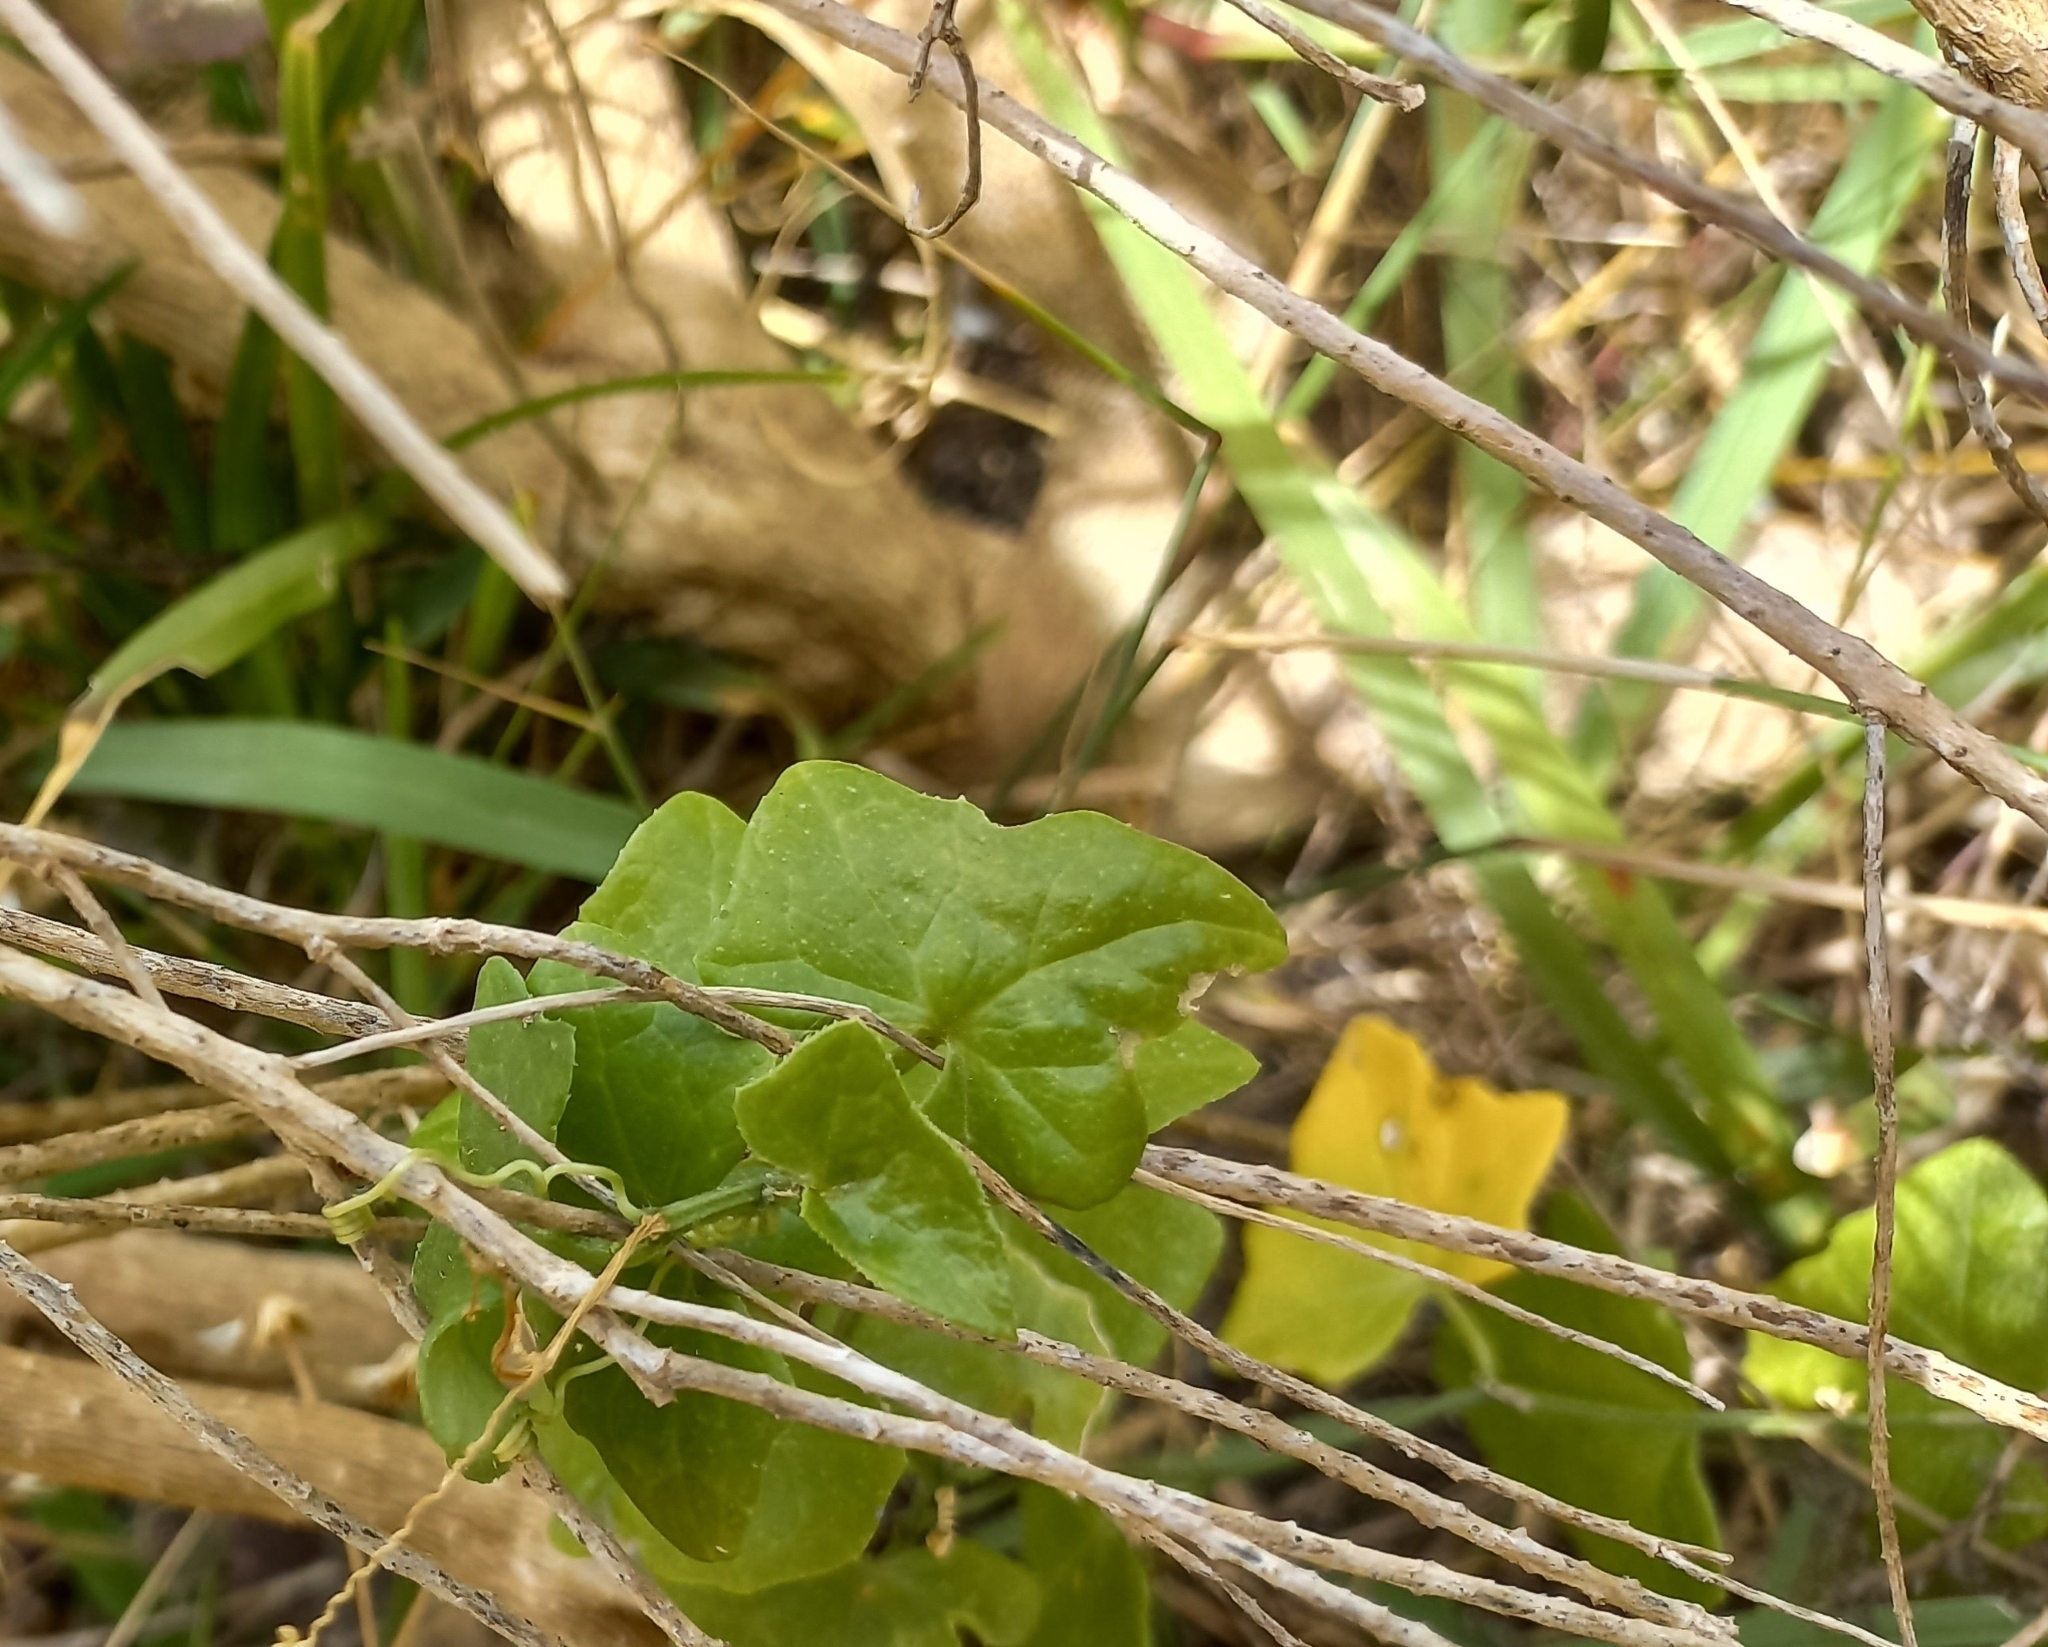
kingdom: Plantae
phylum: Tracheophyta
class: Magnoliopsida
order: Cucurbitales
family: Cucurbitaceae
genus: Kedrostis
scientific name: Kedrostis nana
